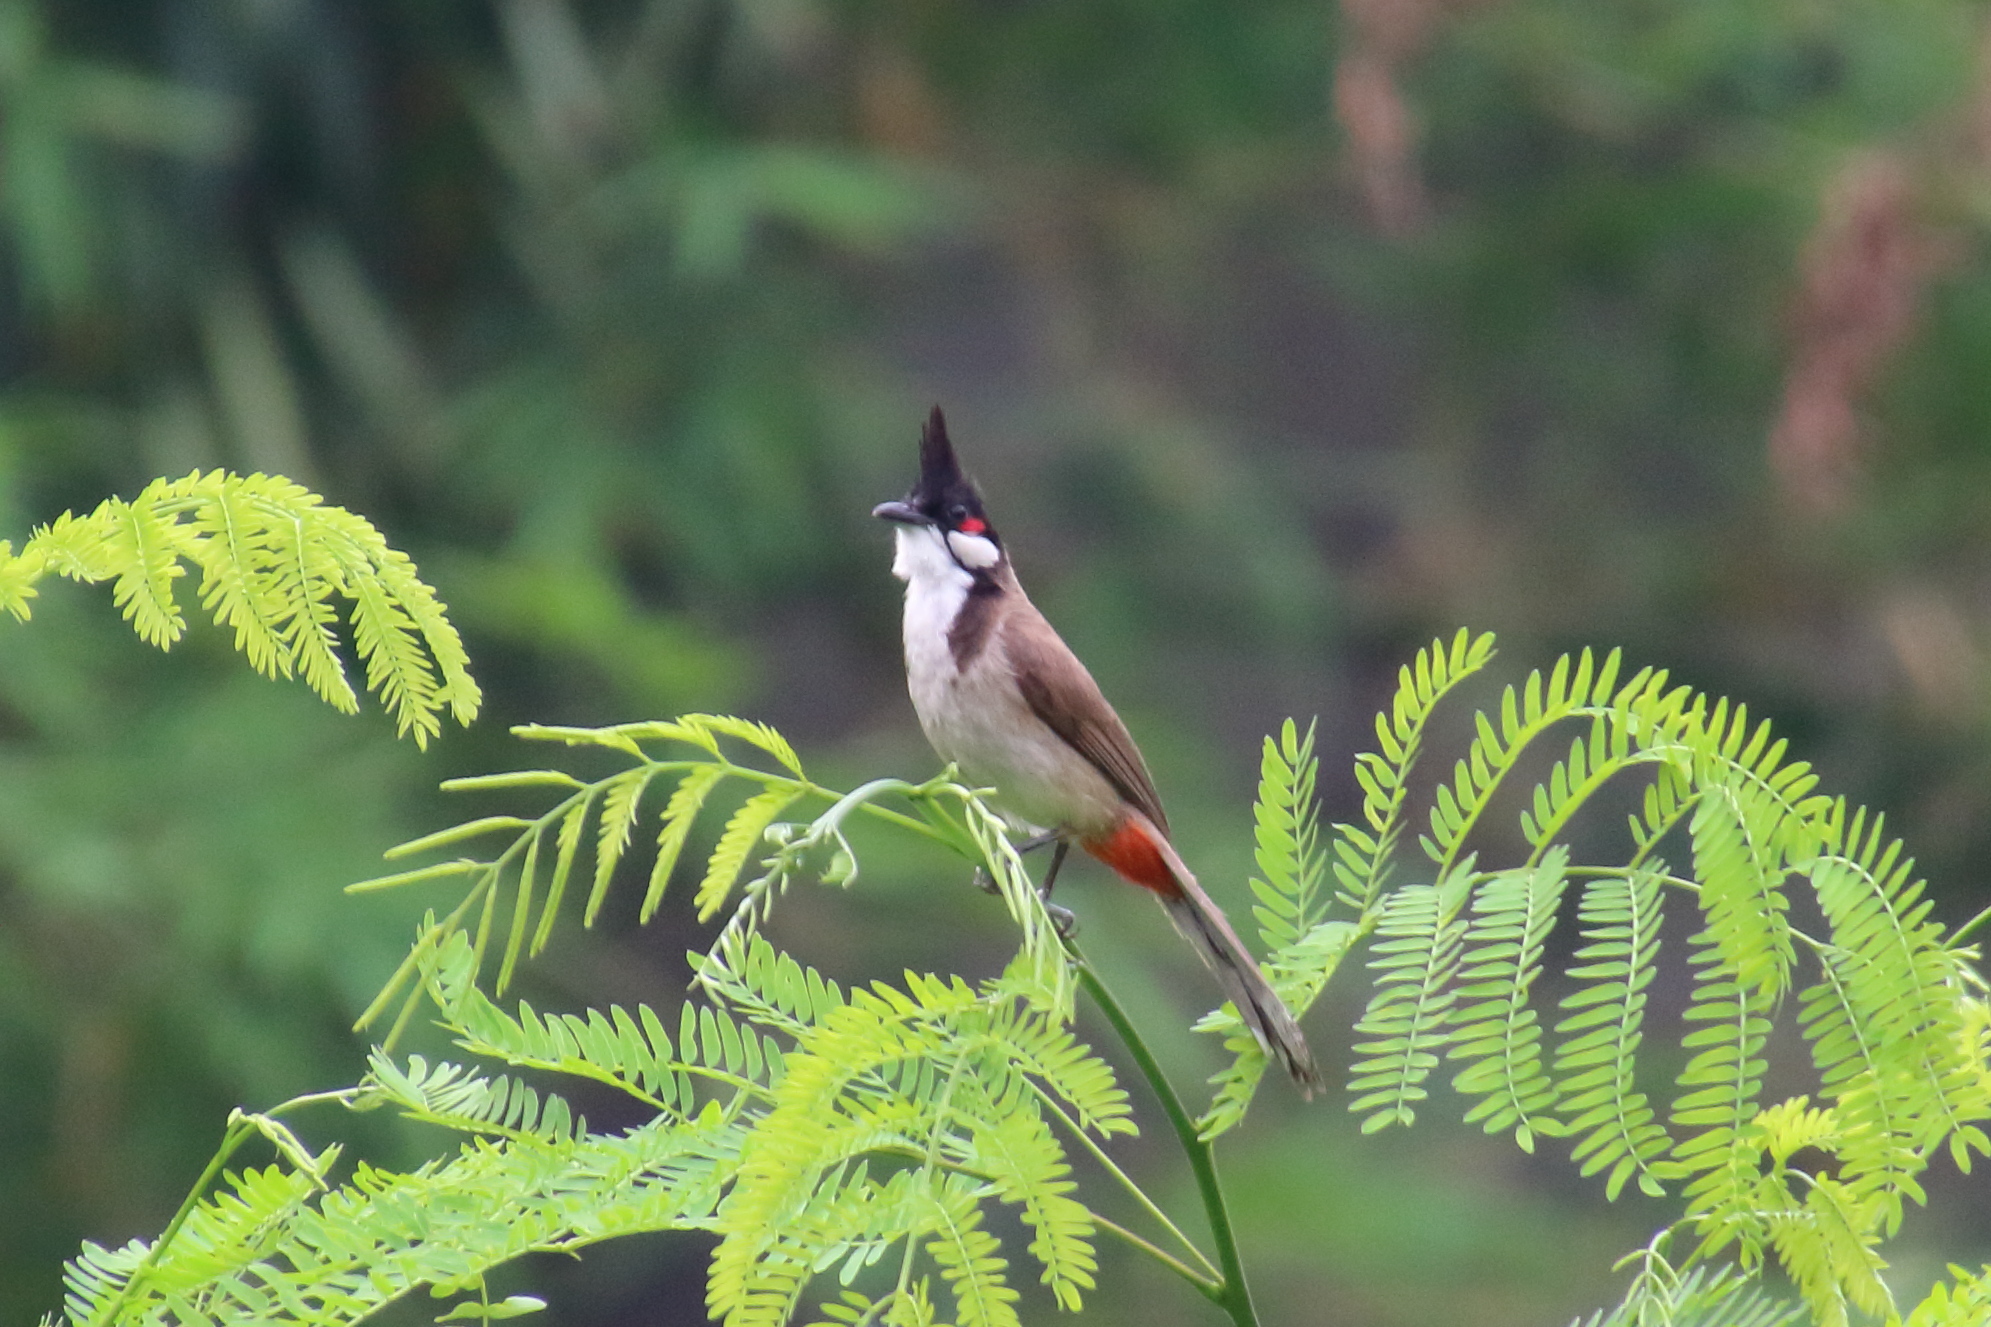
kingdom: Animalia
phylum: Chordata
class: Aves
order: Passeriformes
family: Pycnonotidae
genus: Pycnonotus
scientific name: Pycnonotus jocosus
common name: Red-whiskered bulbul
